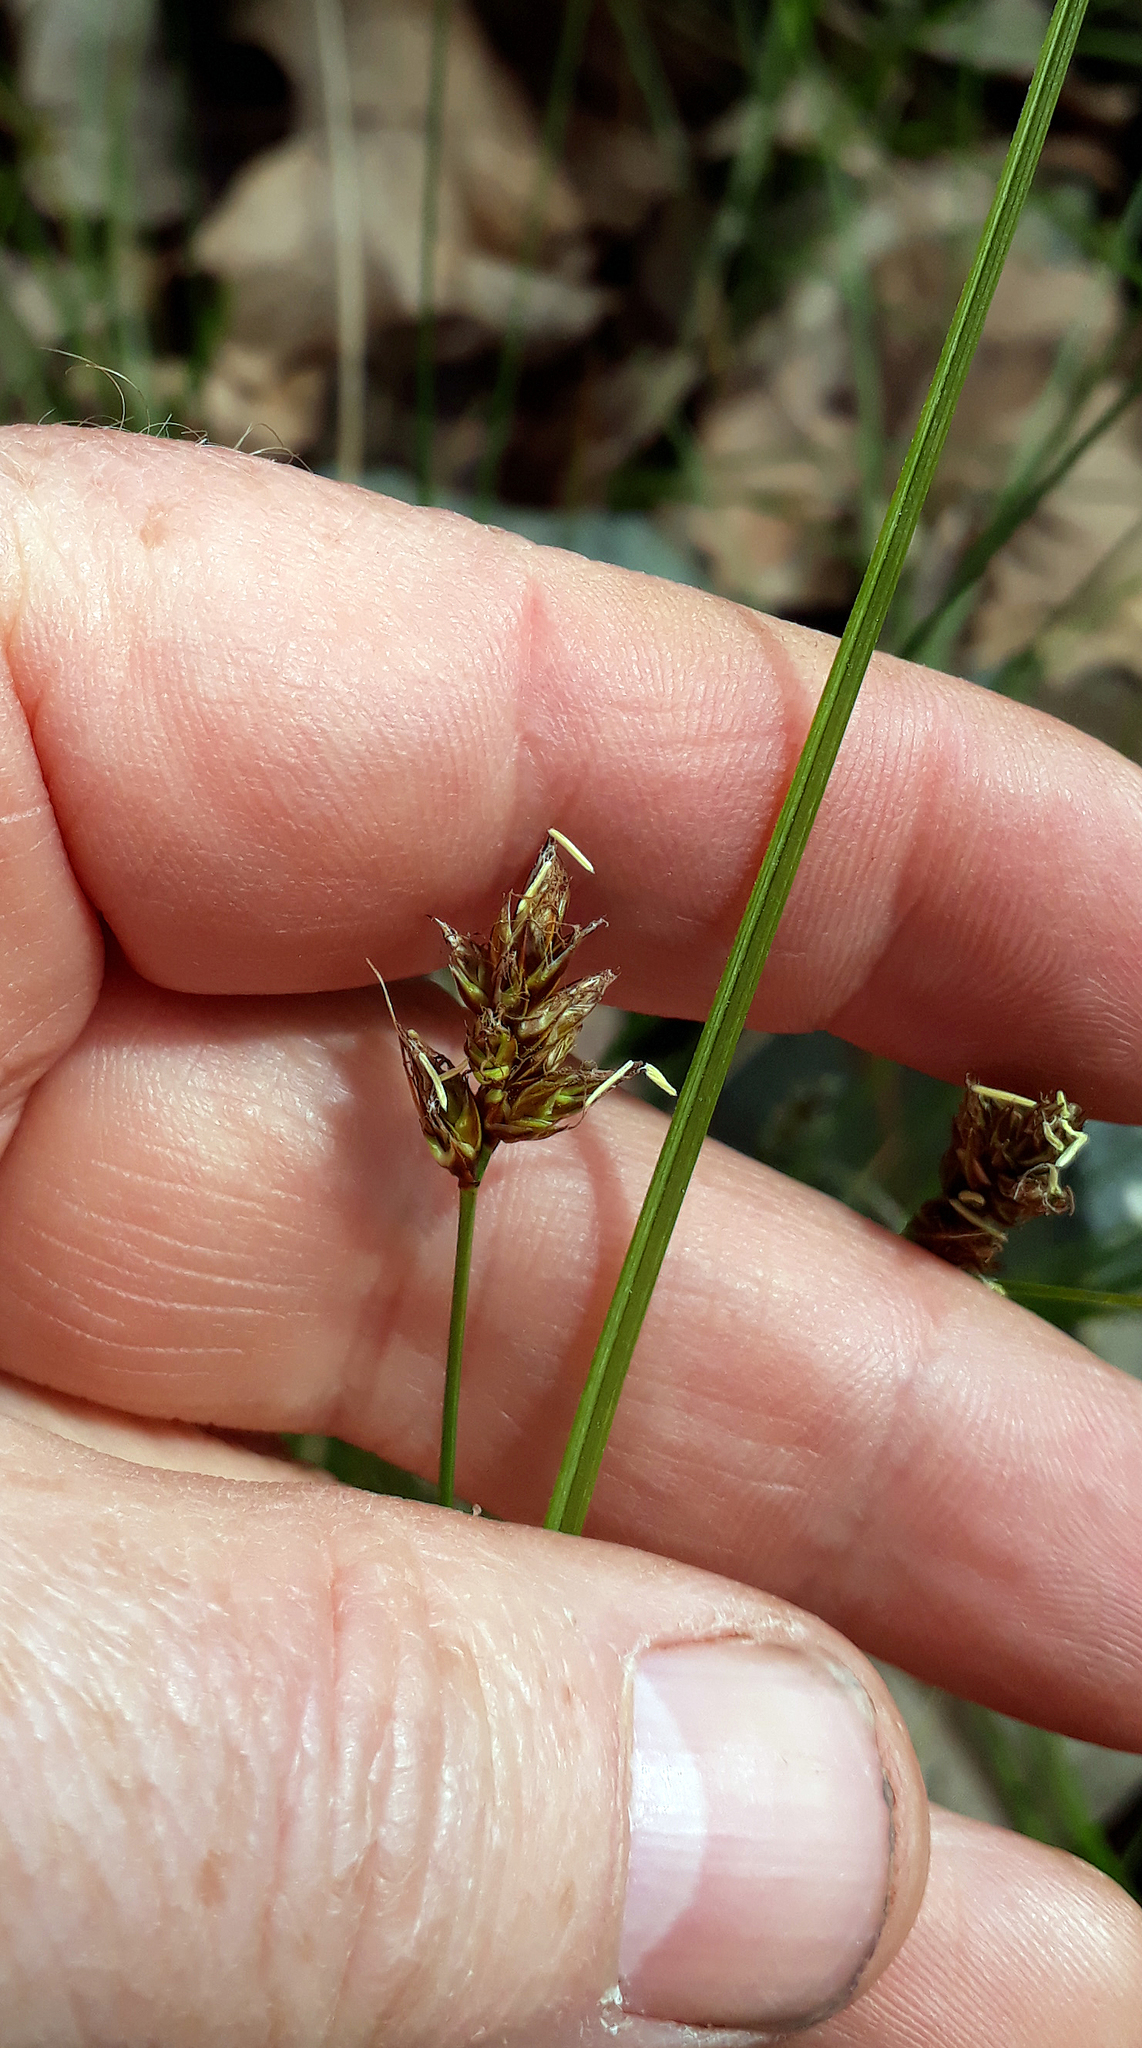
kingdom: Plantae
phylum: Tracheophyta
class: Liliopsida
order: Poales
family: Cyperaceae
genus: Carex
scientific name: Carex divisa
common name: Divided sedge
